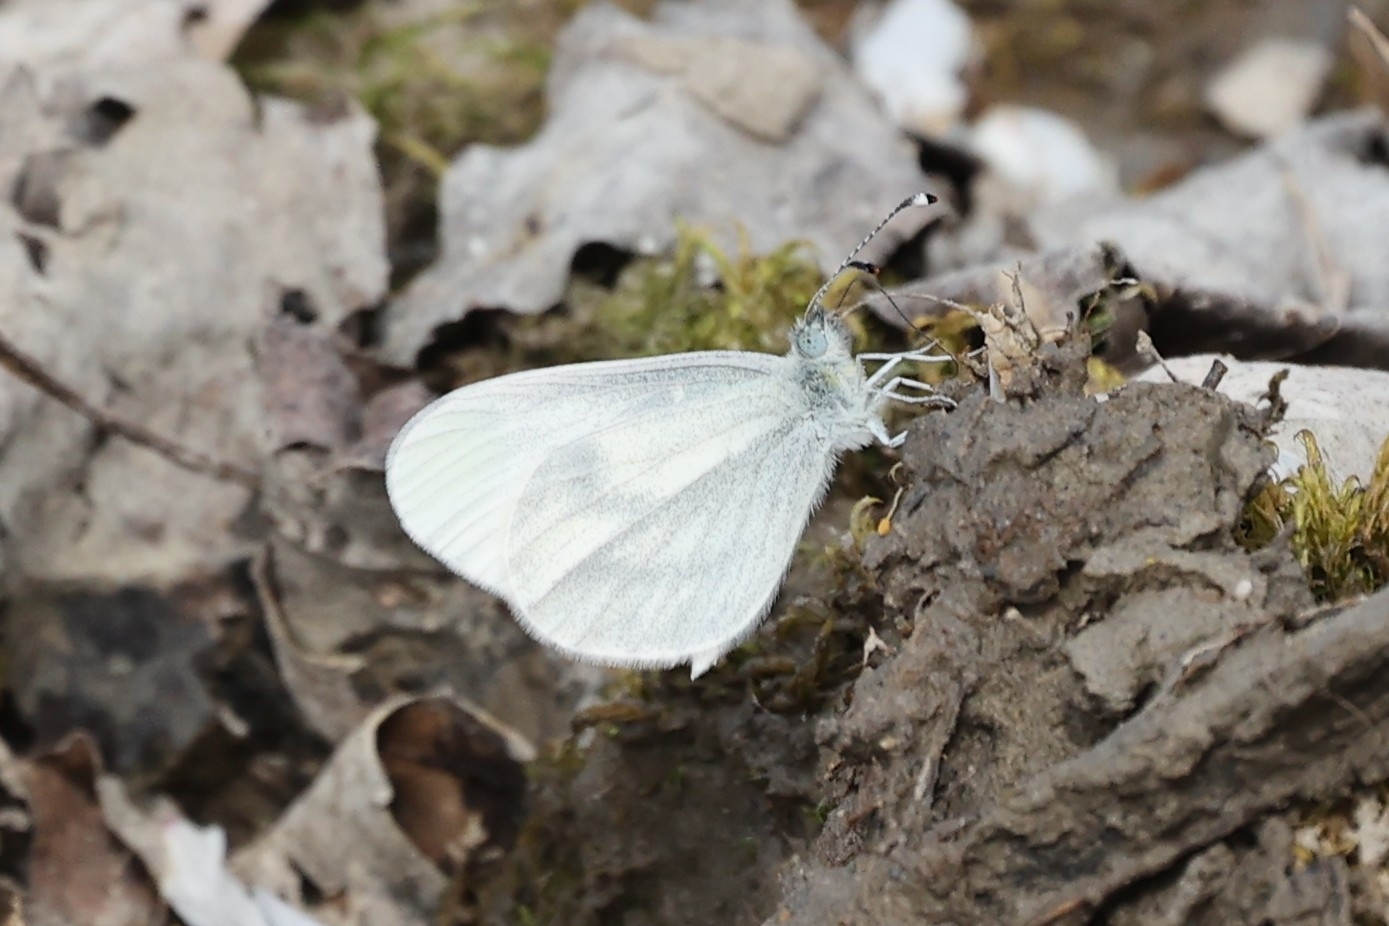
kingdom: Animalia
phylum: Arthropoda
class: Insecta
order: Lepidoptera
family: Pieridae
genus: Leptidea
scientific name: Leptidea sinapis
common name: Wood white
